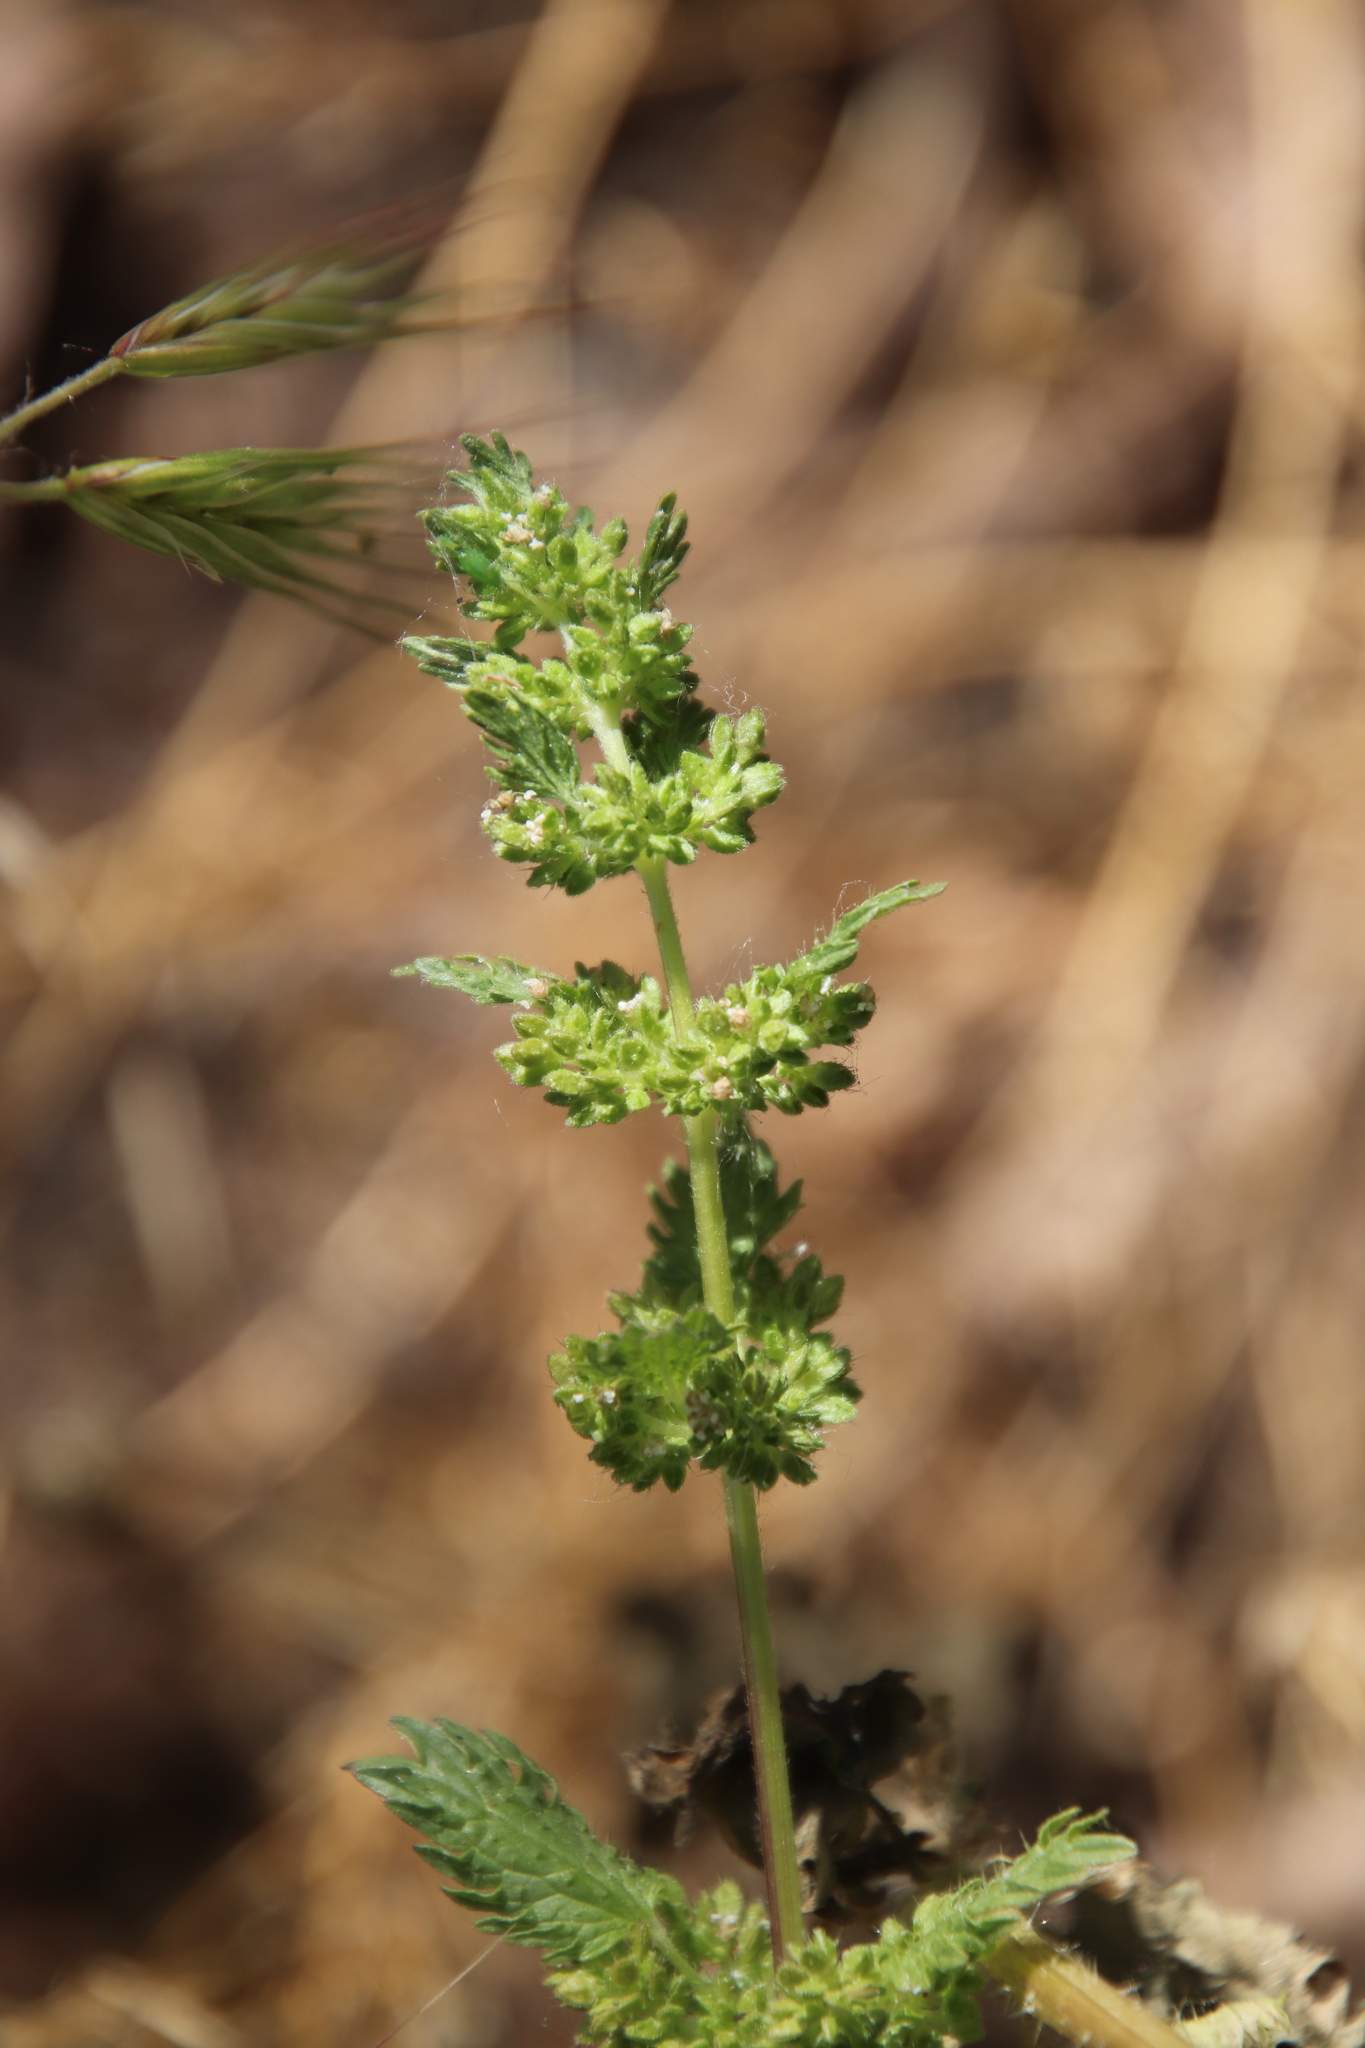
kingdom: Plantae
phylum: Tracheophyta
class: Magnoliopsida
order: Rosales
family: Urticaceae
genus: Urtica
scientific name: Urtica urens
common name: Dwarf nettle
